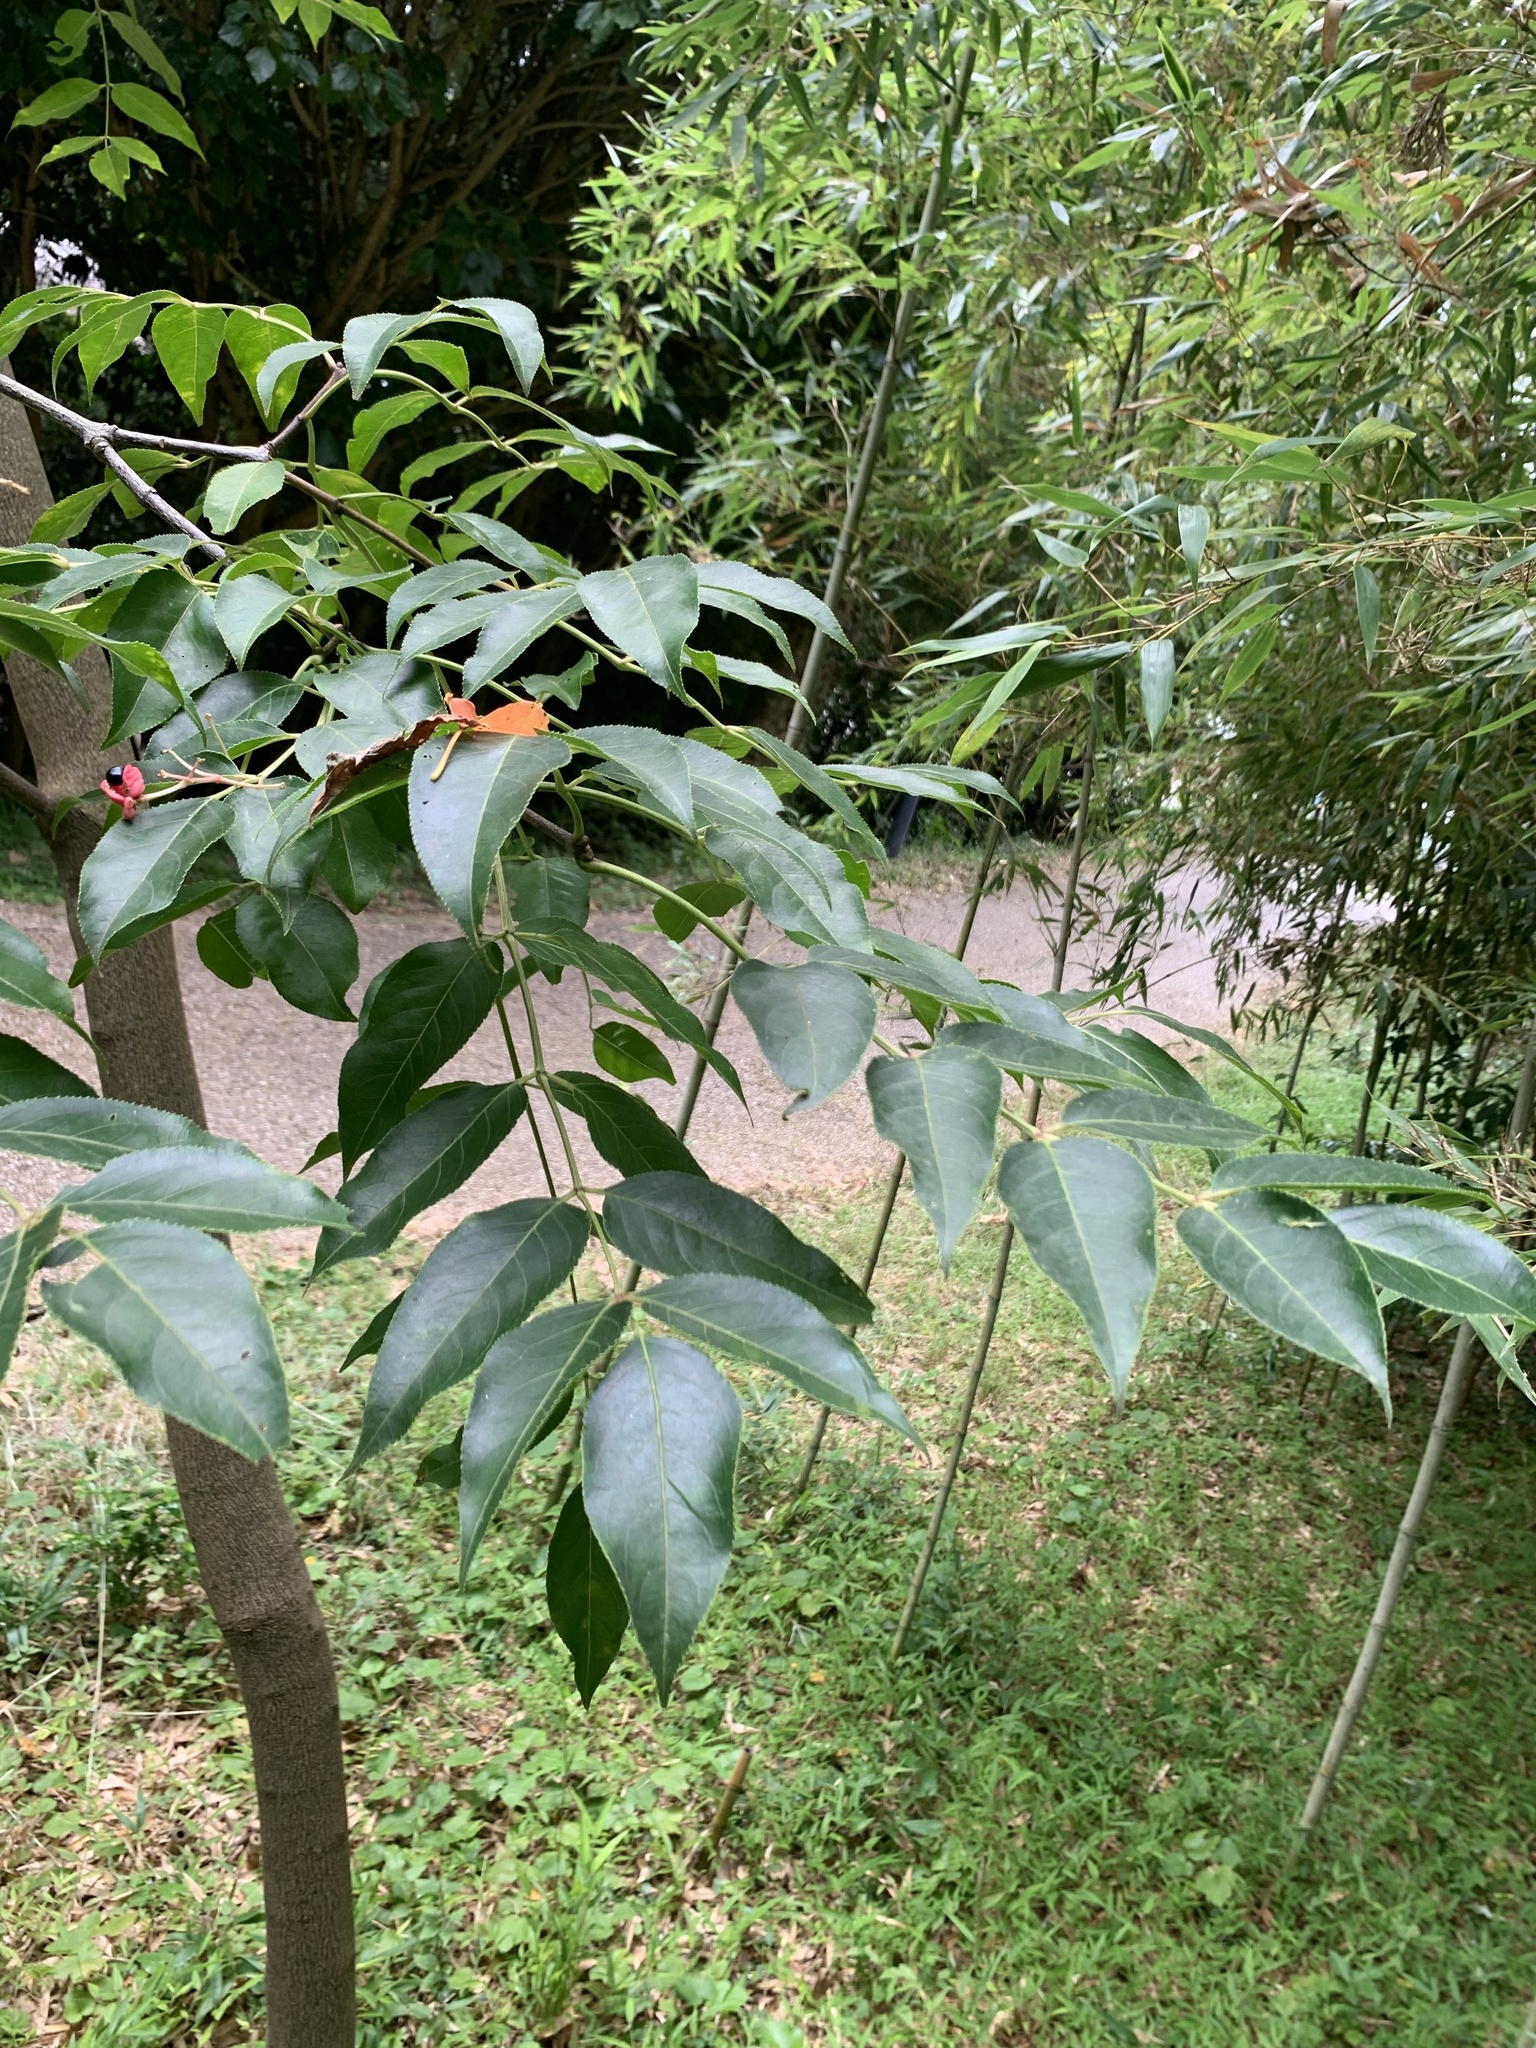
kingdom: Plantae
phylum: Tracheophyta
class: Magnoliopsida
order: Crossosomatales
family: Staphyleaceae
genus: Staphylea
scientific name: Staphylea japonica
